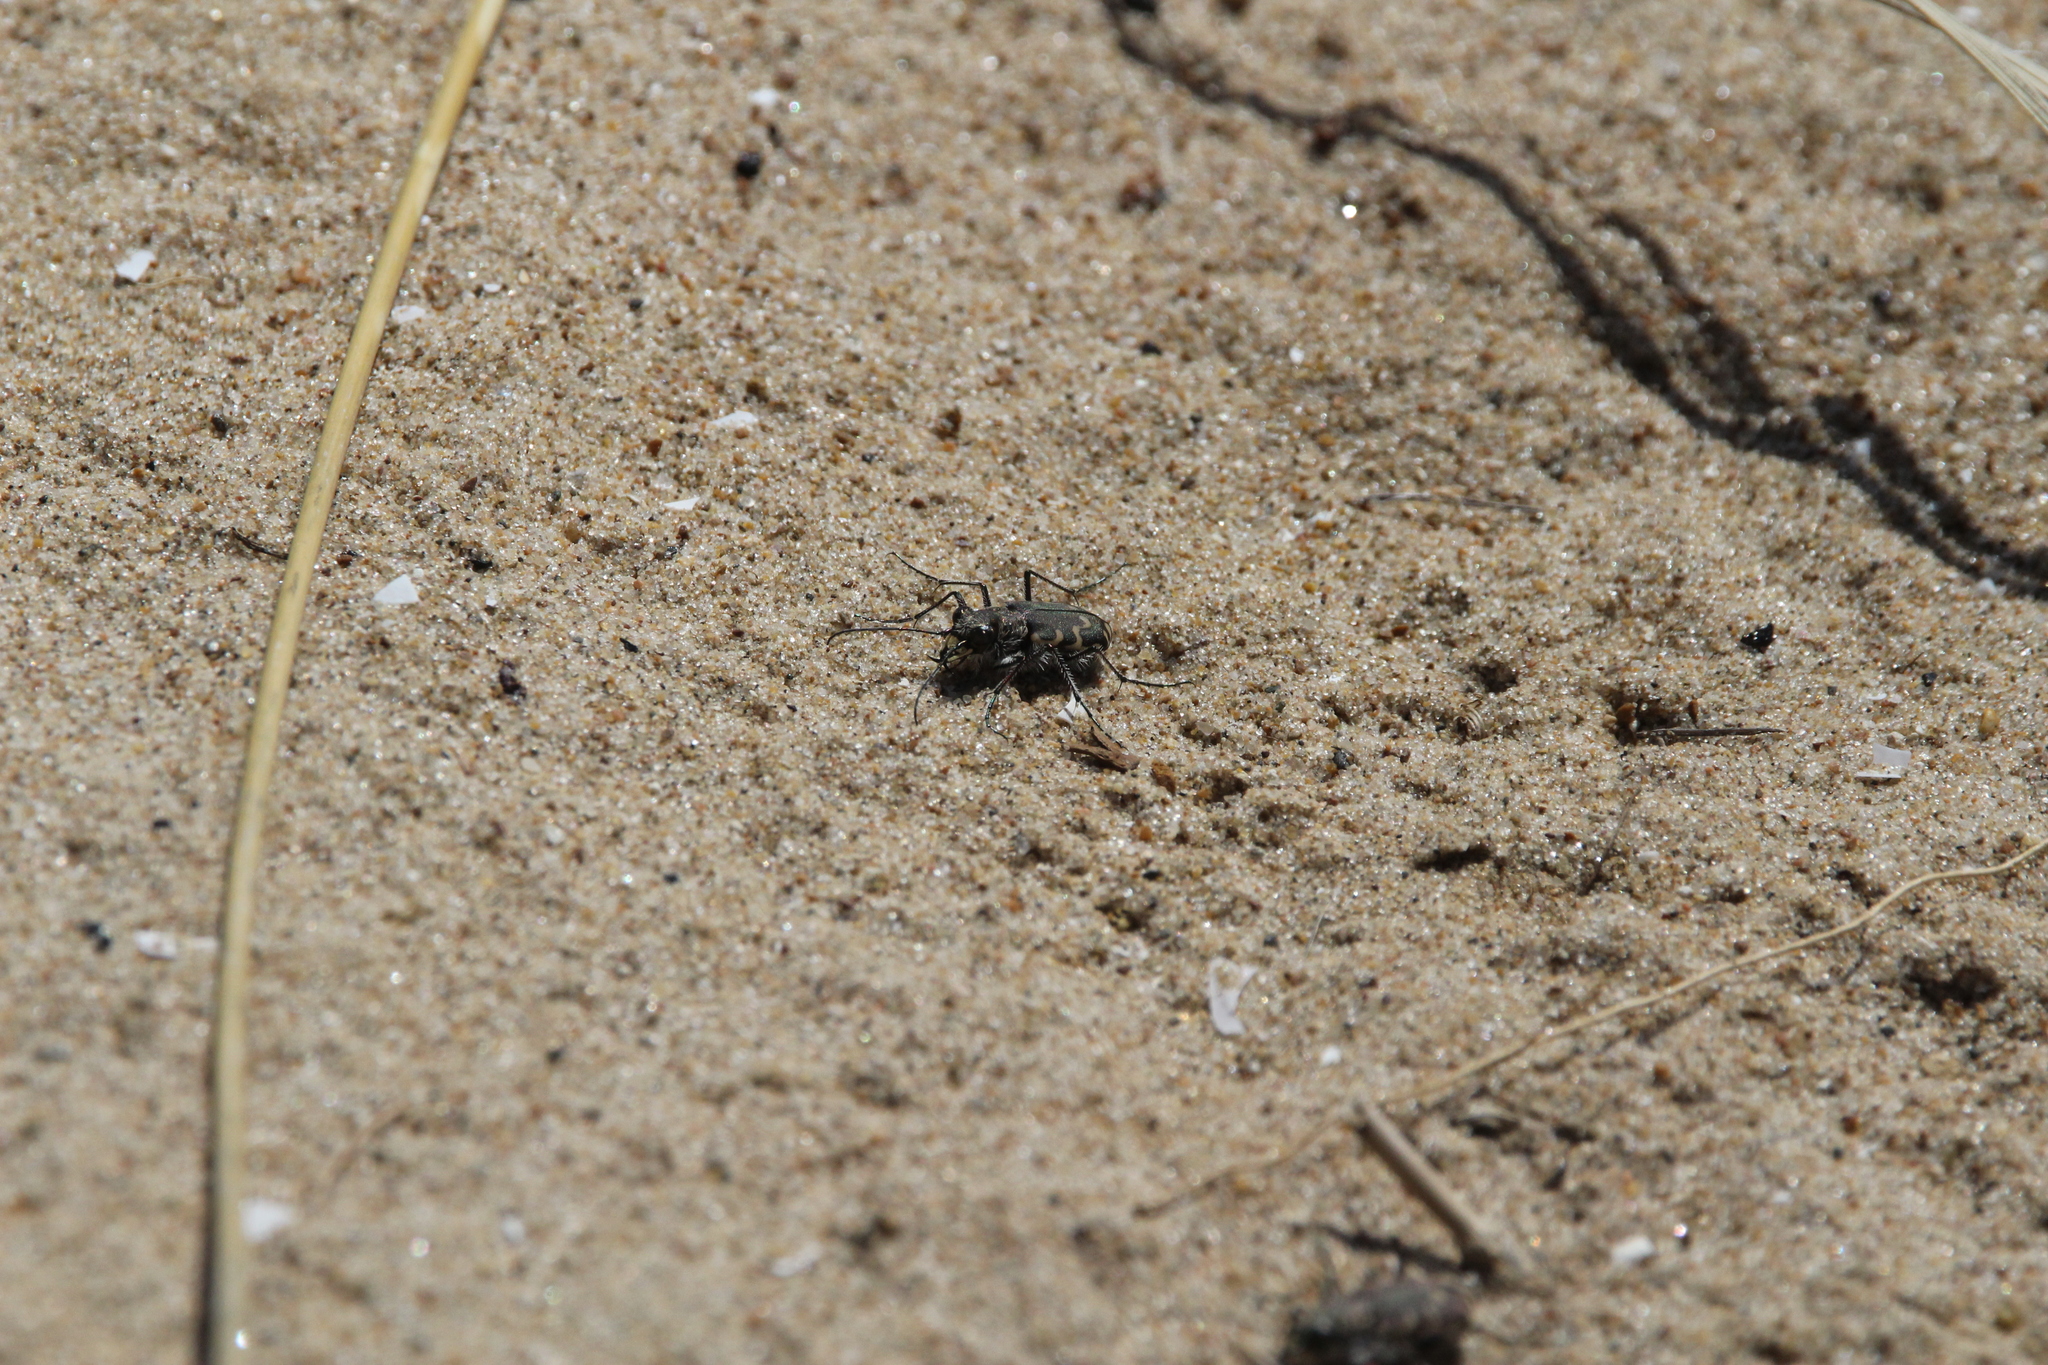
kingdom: Animalia
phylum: Arthropoda
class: Insecta
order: Coleoptera
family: Carabidae
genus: Cicindela
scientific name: Cicindela repanda
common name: Bronzed tiger beetle
